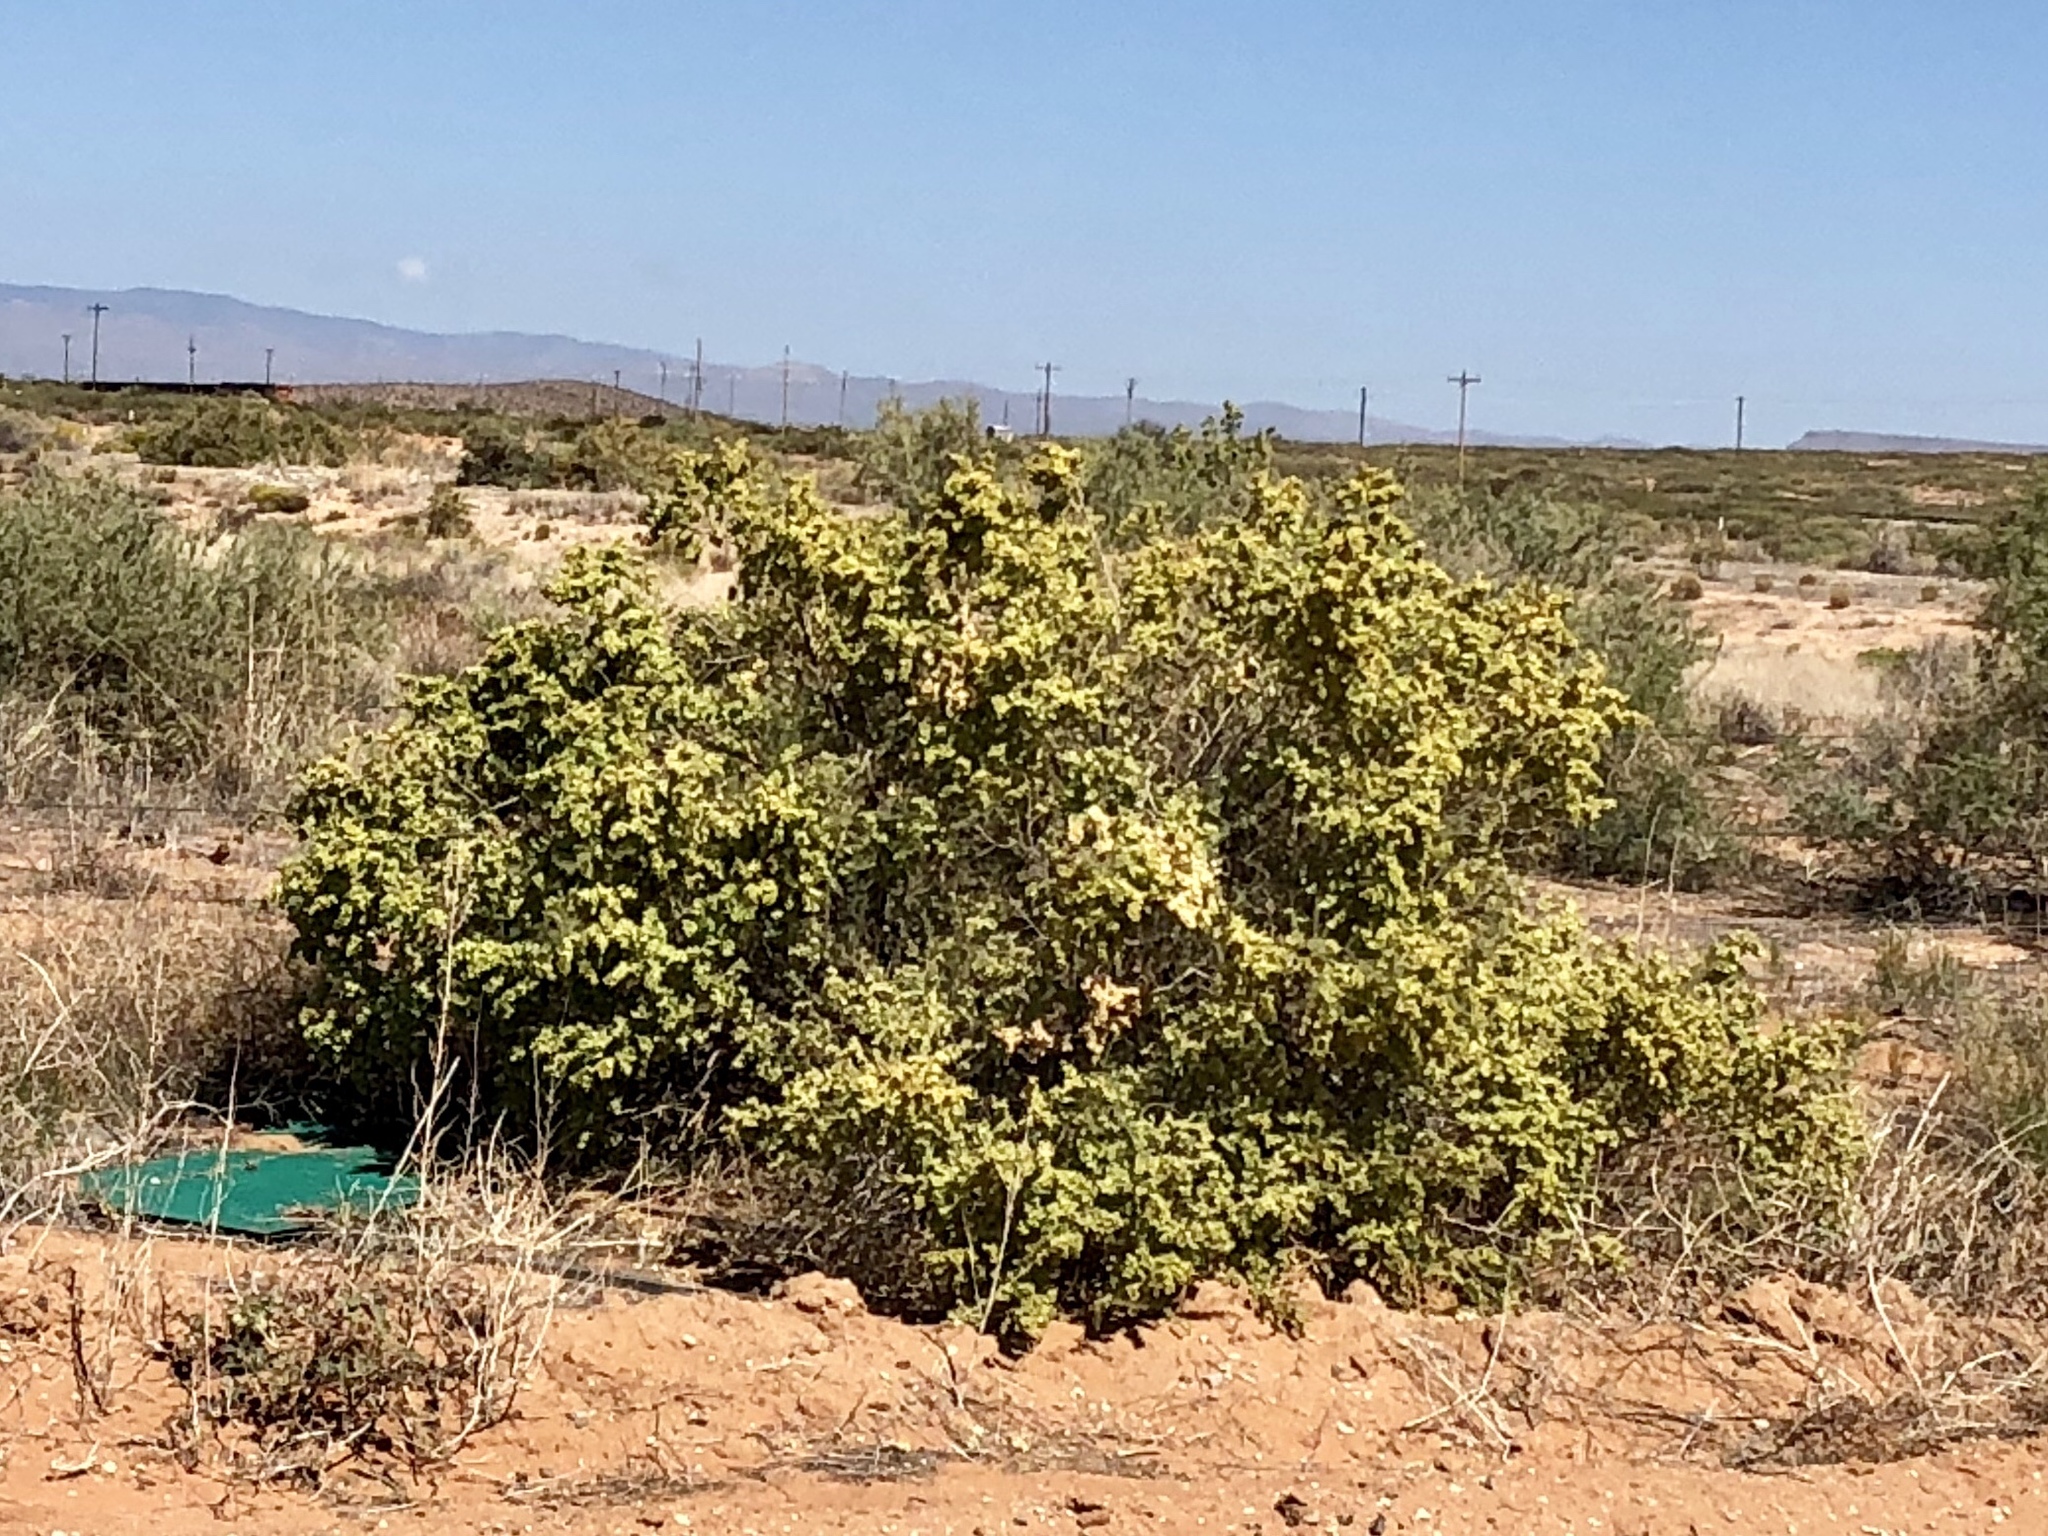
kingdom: Plantae
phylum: Tracheophyta
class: Magnoliopsida
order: Caryophyllales
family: Amaranthaceae
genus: Atriplex
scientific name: Atriplex canescens
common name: Four-wing saltbush
